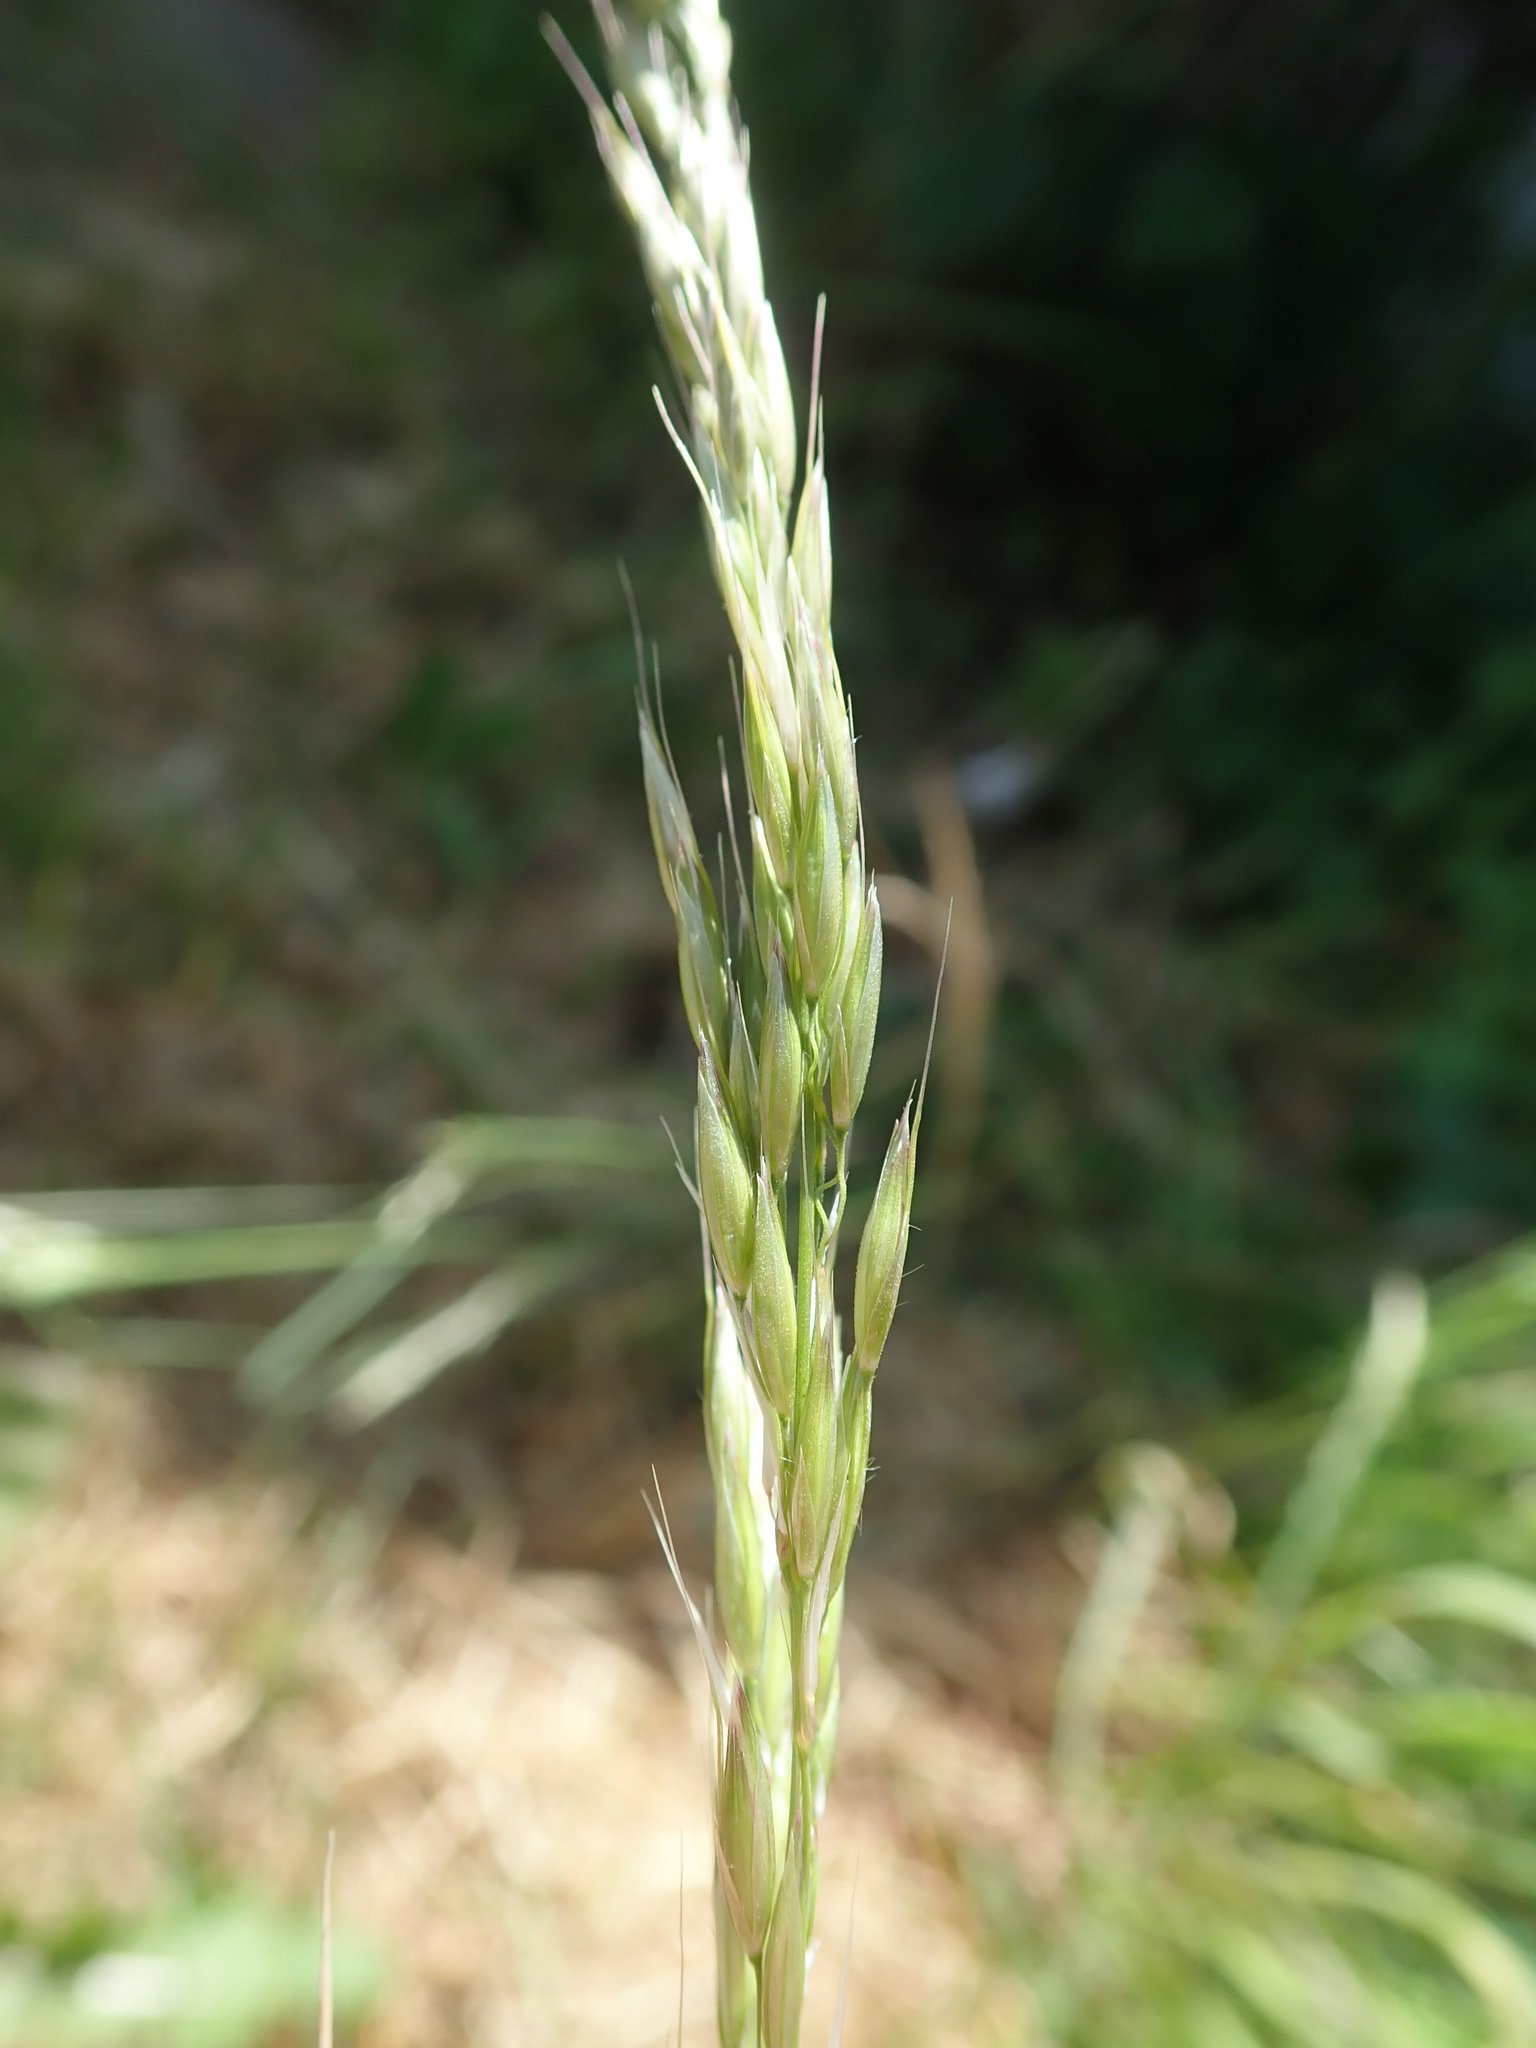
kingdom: Plantae
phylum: Tracheophyta
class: Liliopsida
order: Poales
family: Poaceae
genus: Arrhenatherum
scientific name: Arrhenatherum elatius
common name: Tall oatgrass
